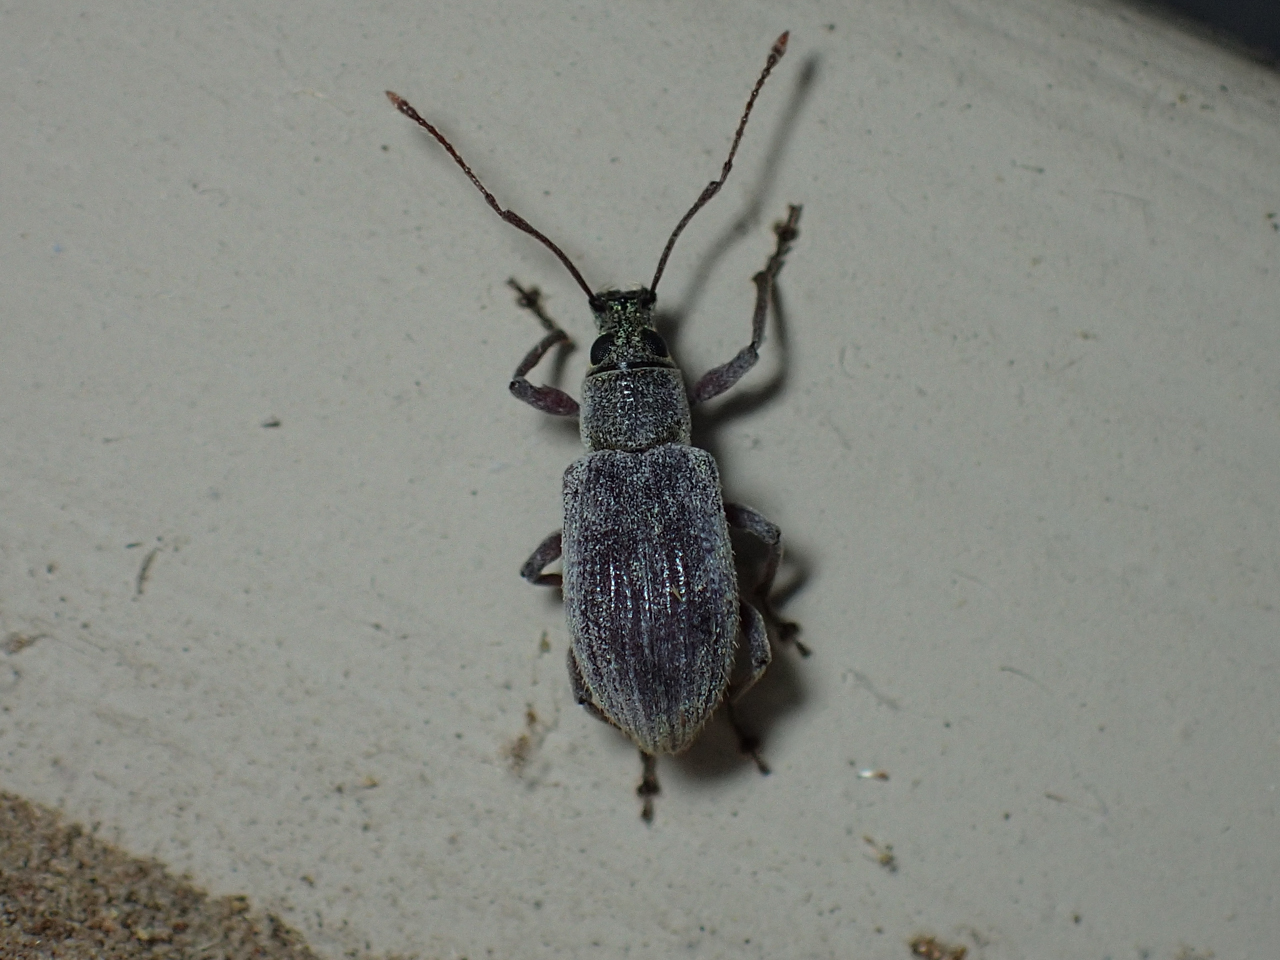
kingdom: Animalia
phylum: Arthropoda
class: Insecta
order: Coleoptera
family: Curculionidae
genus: Cyrtepistomus
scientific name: Cyrtepistomus castaneus
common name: Weevil
